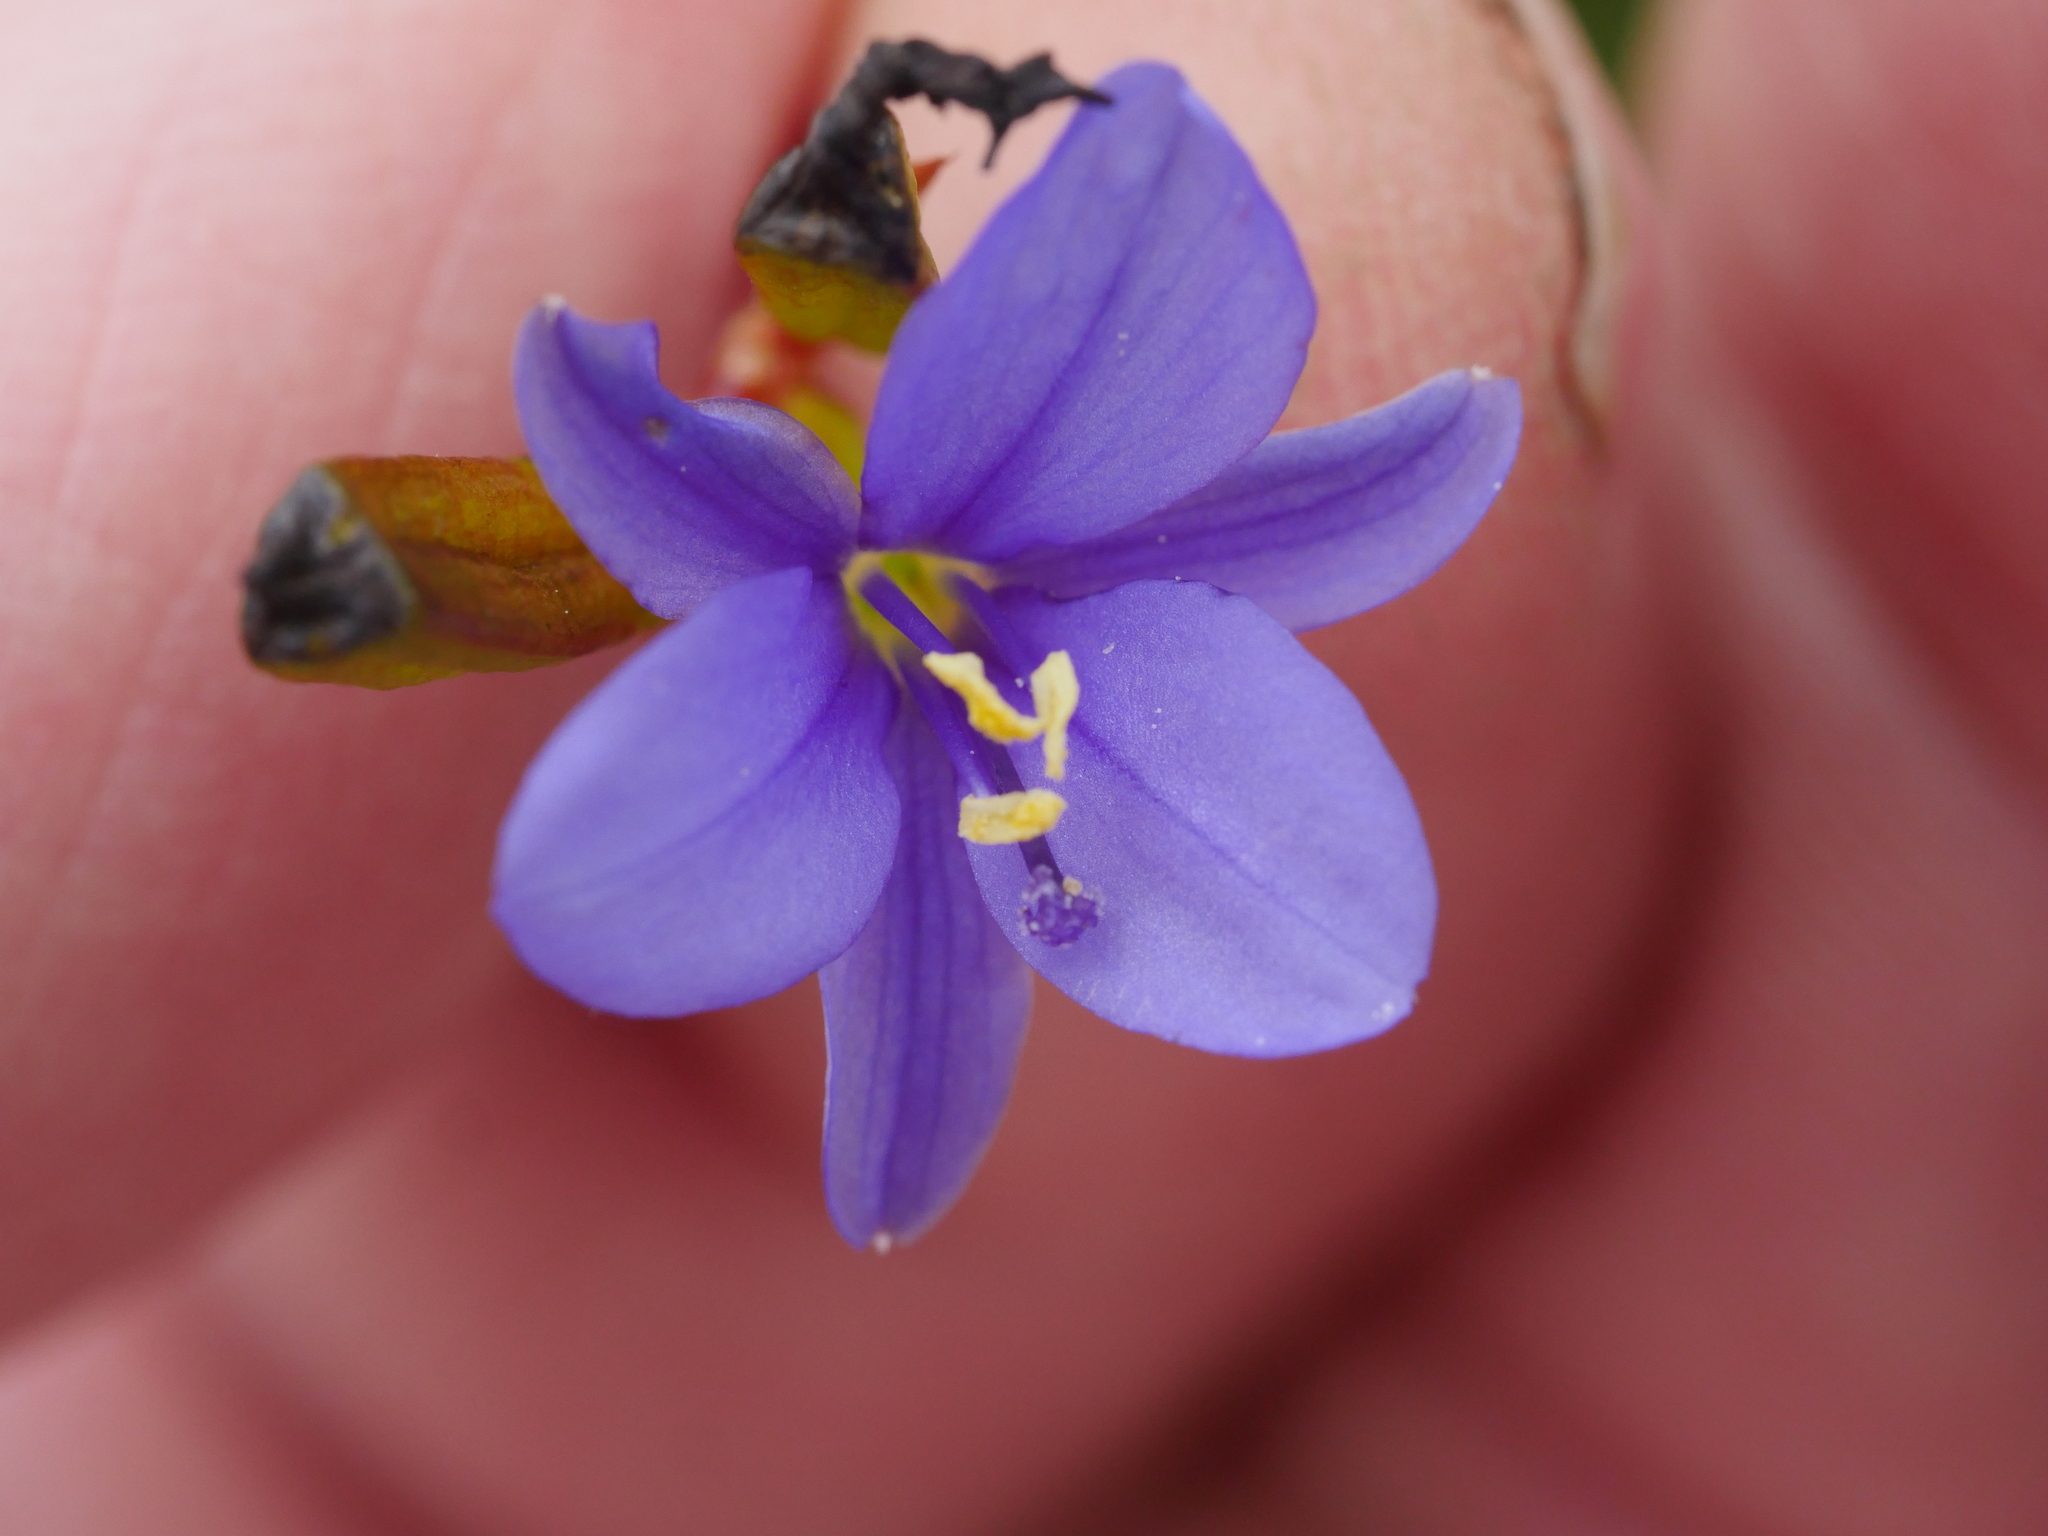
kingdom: Plantae
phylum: Tracheophyta
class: Liliopsida
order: Asparagales
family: Iridaceae
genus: Aristea
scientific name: Aristea ecklonii
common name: Blue corn-lily
